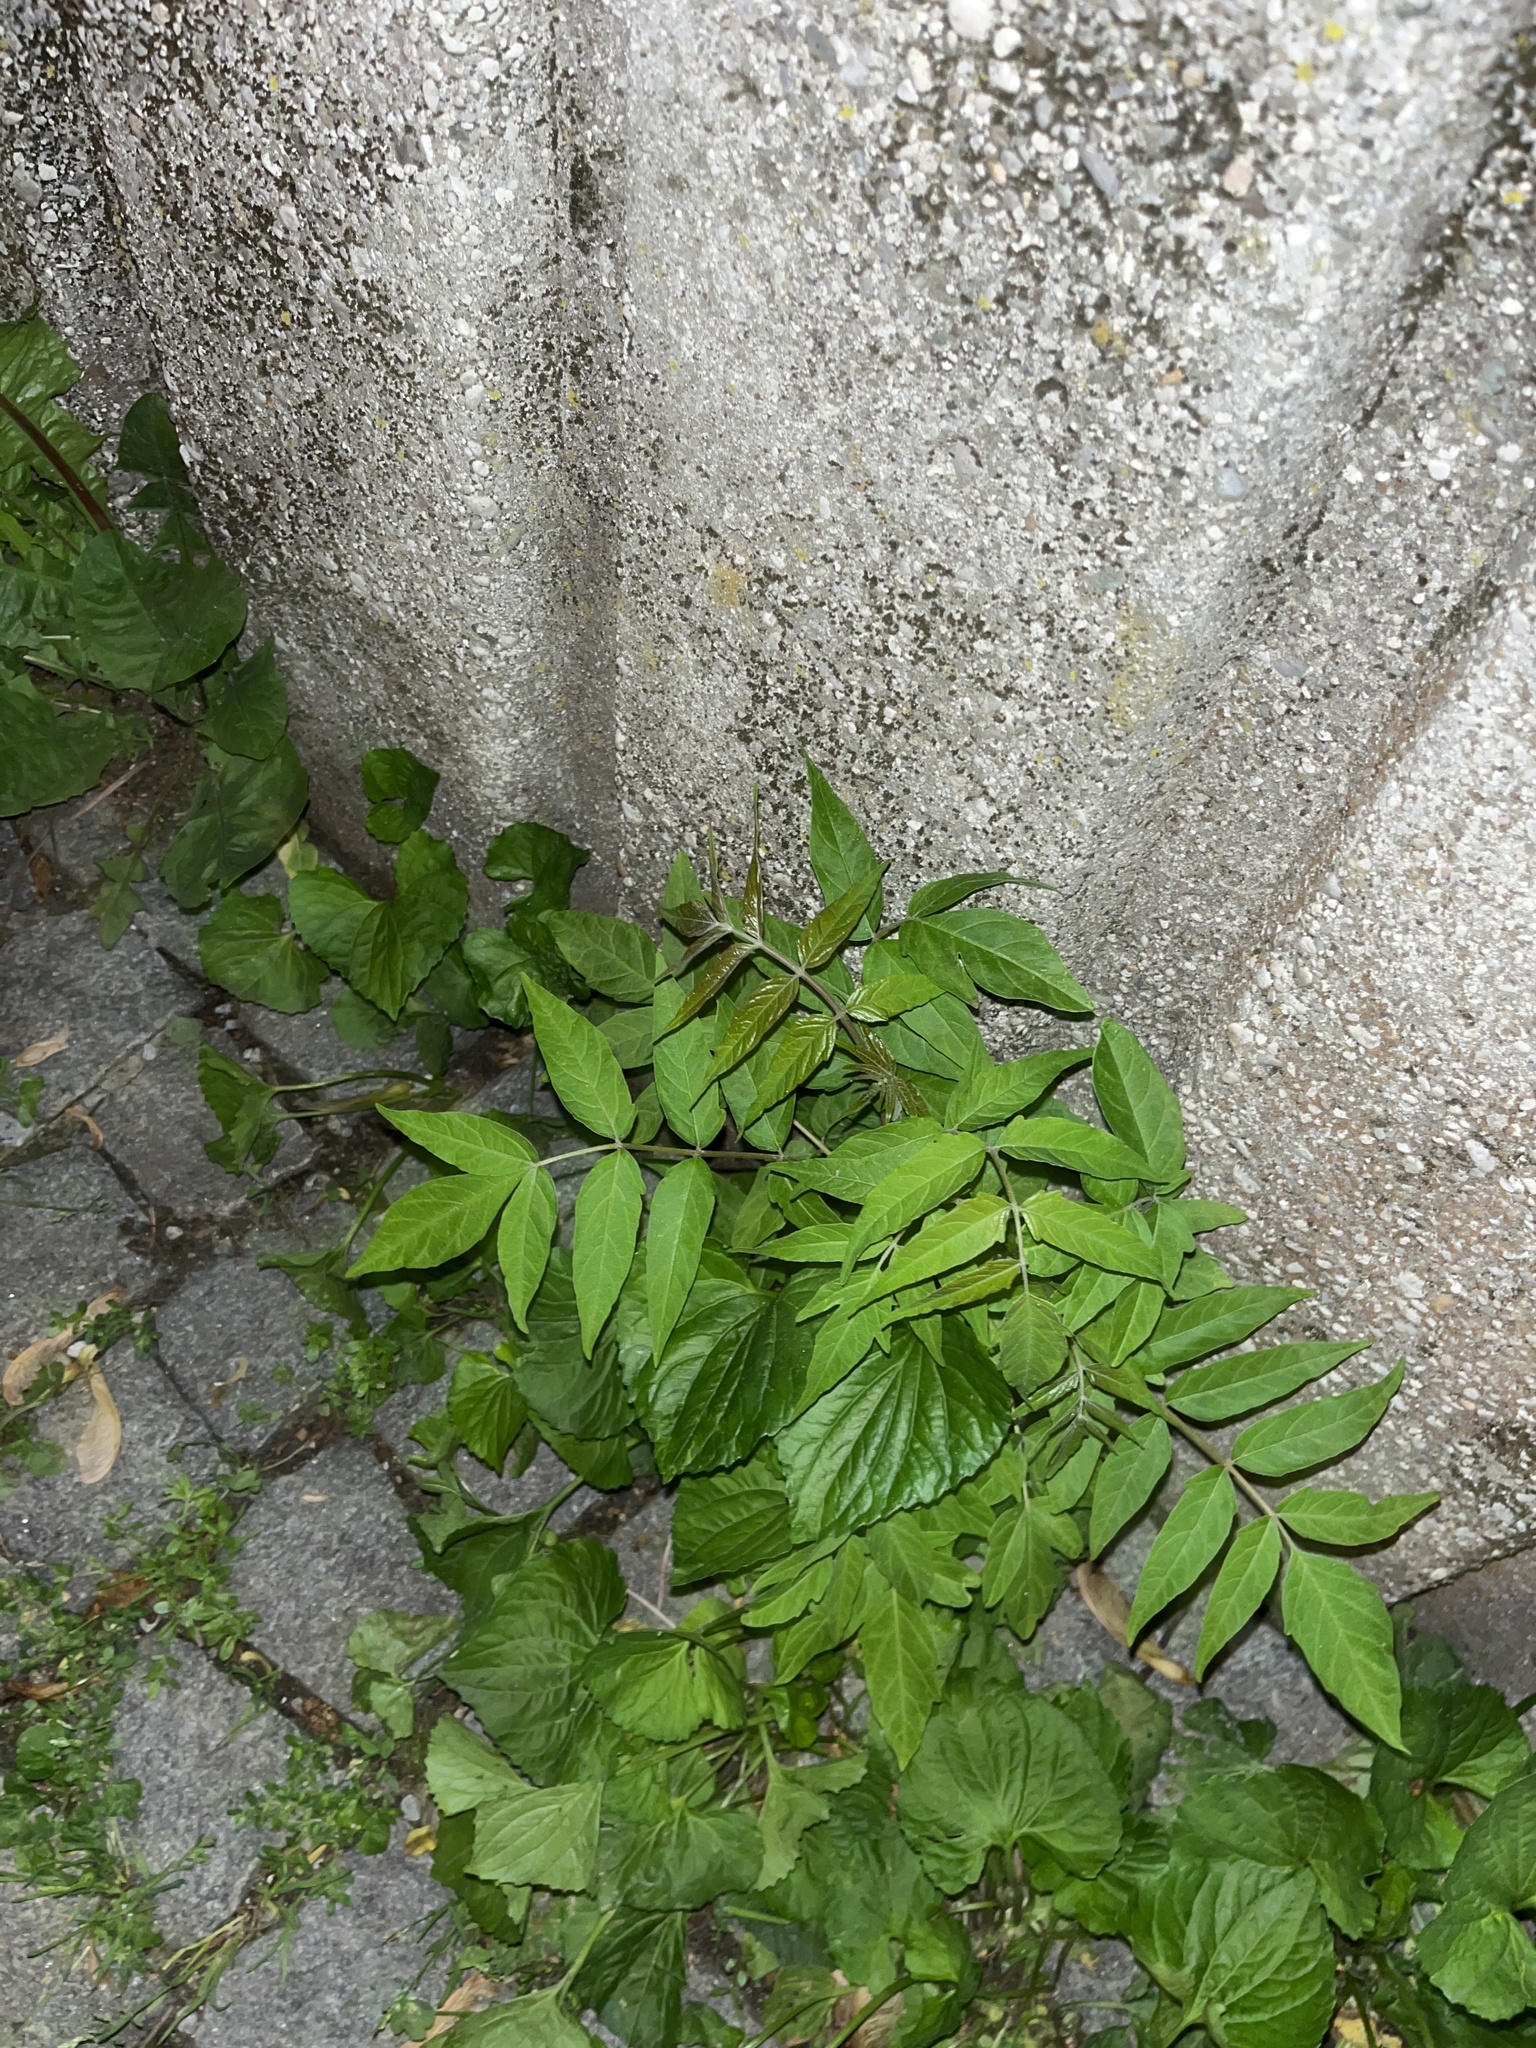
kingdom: Plantae
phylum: Tracheophyta
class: Magnoliopsida
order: Sapindales
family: Simaroubaceae
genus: Ailanthus
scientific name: Ailanthus altissima
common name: Tree-of-heaven
